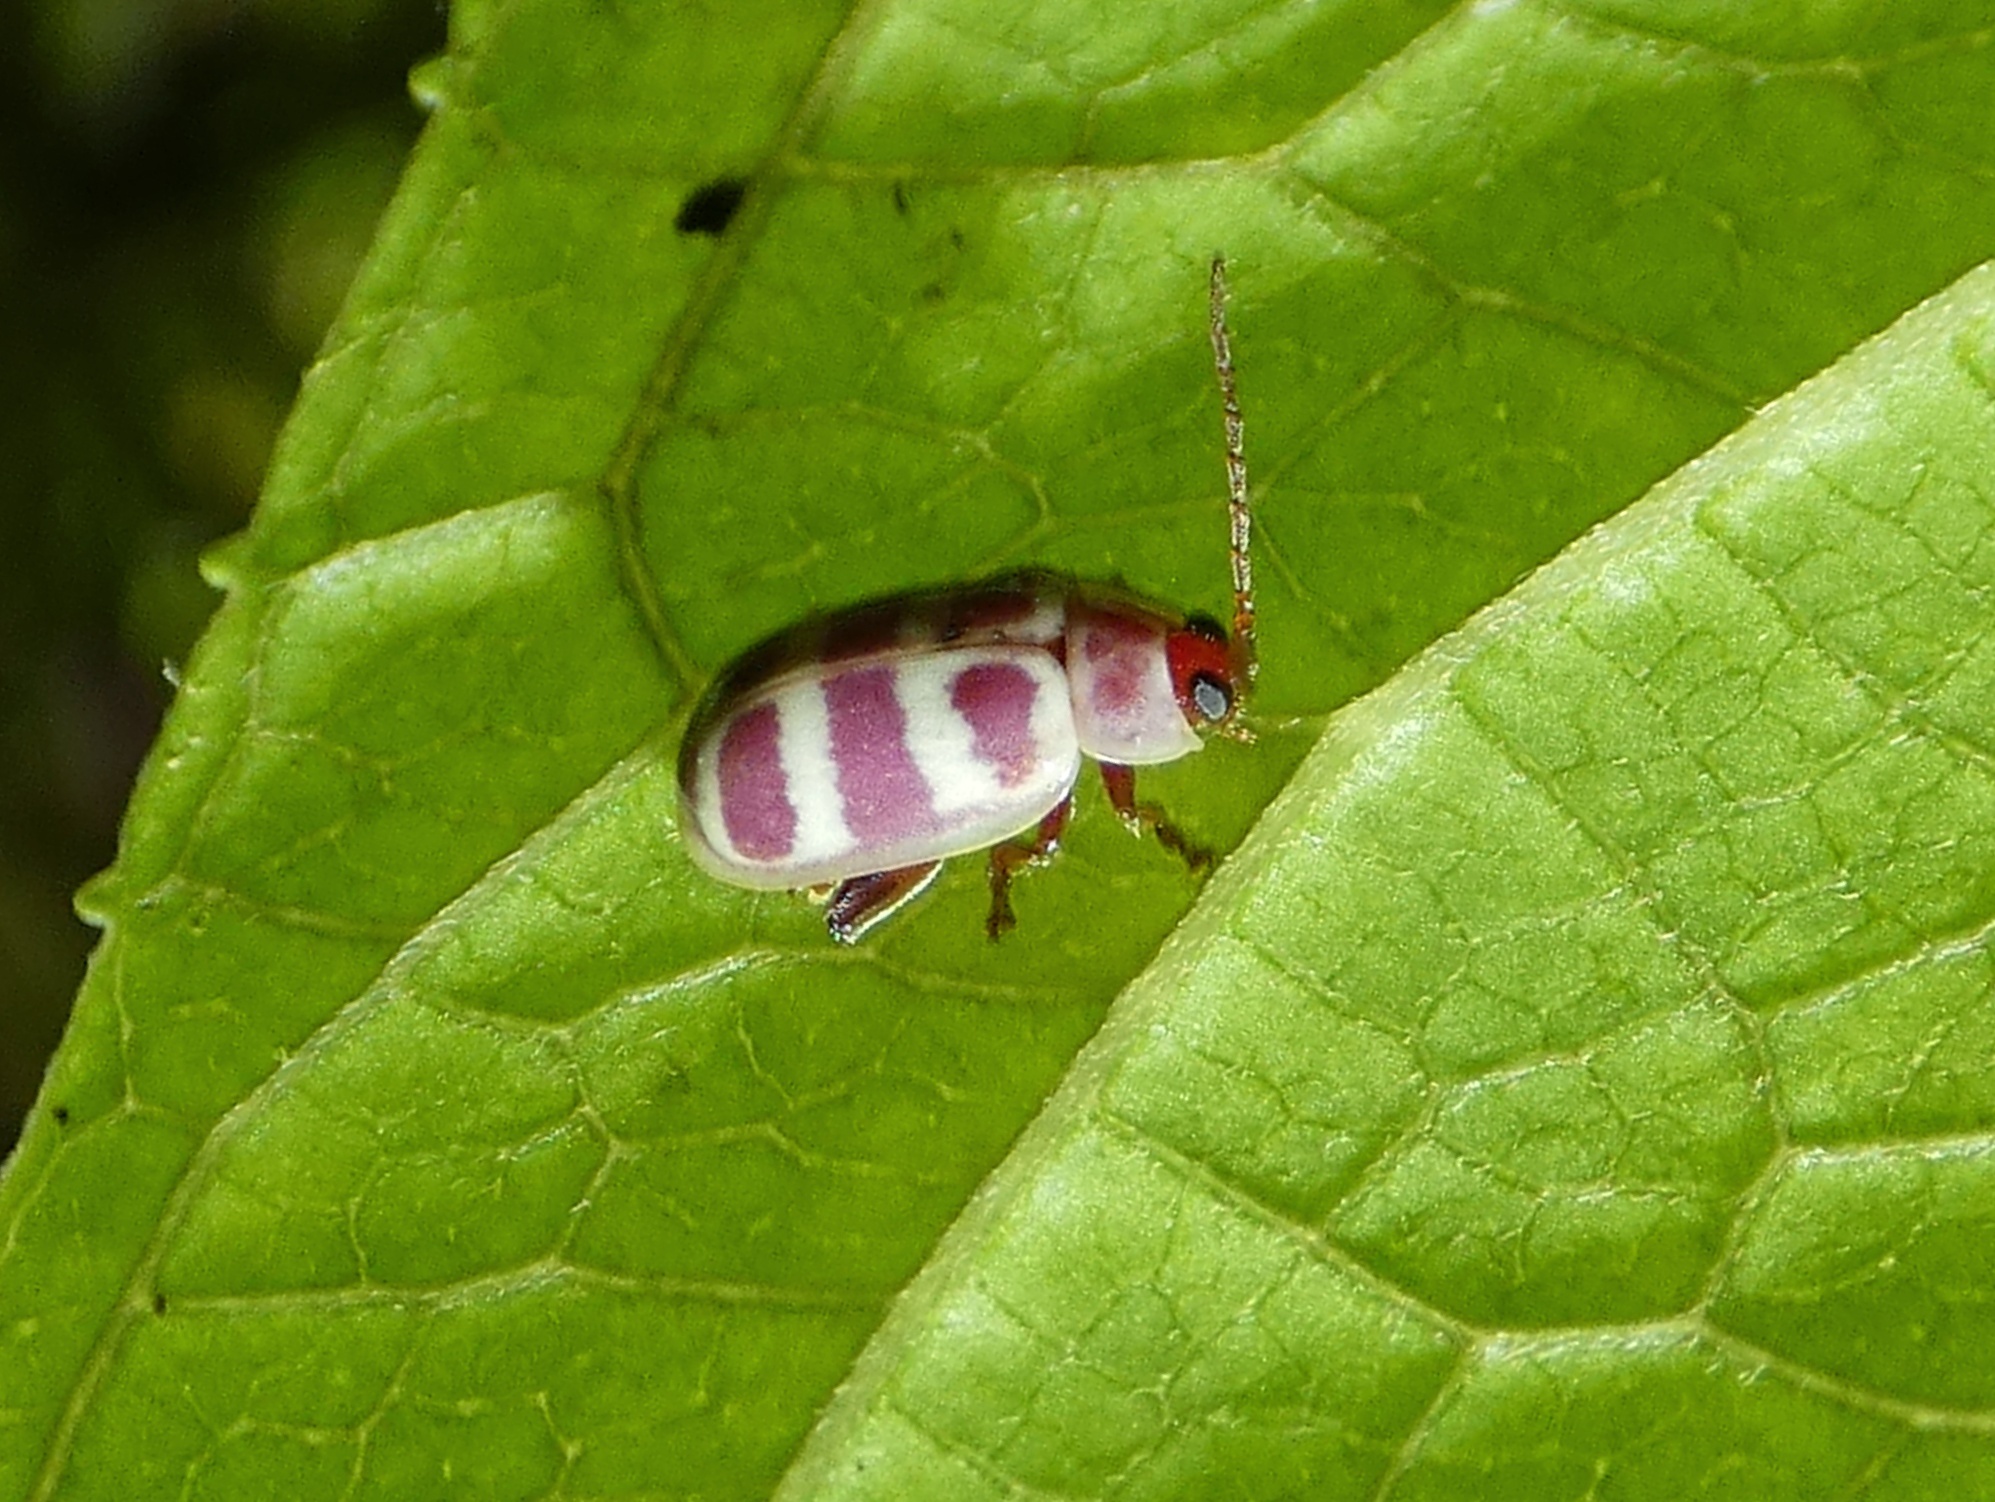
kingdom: Animalia
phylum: Arthropoda
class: Insecta
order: Coleoptera
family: Chrysomelidae
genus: Asphaera
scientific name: Asphaera
